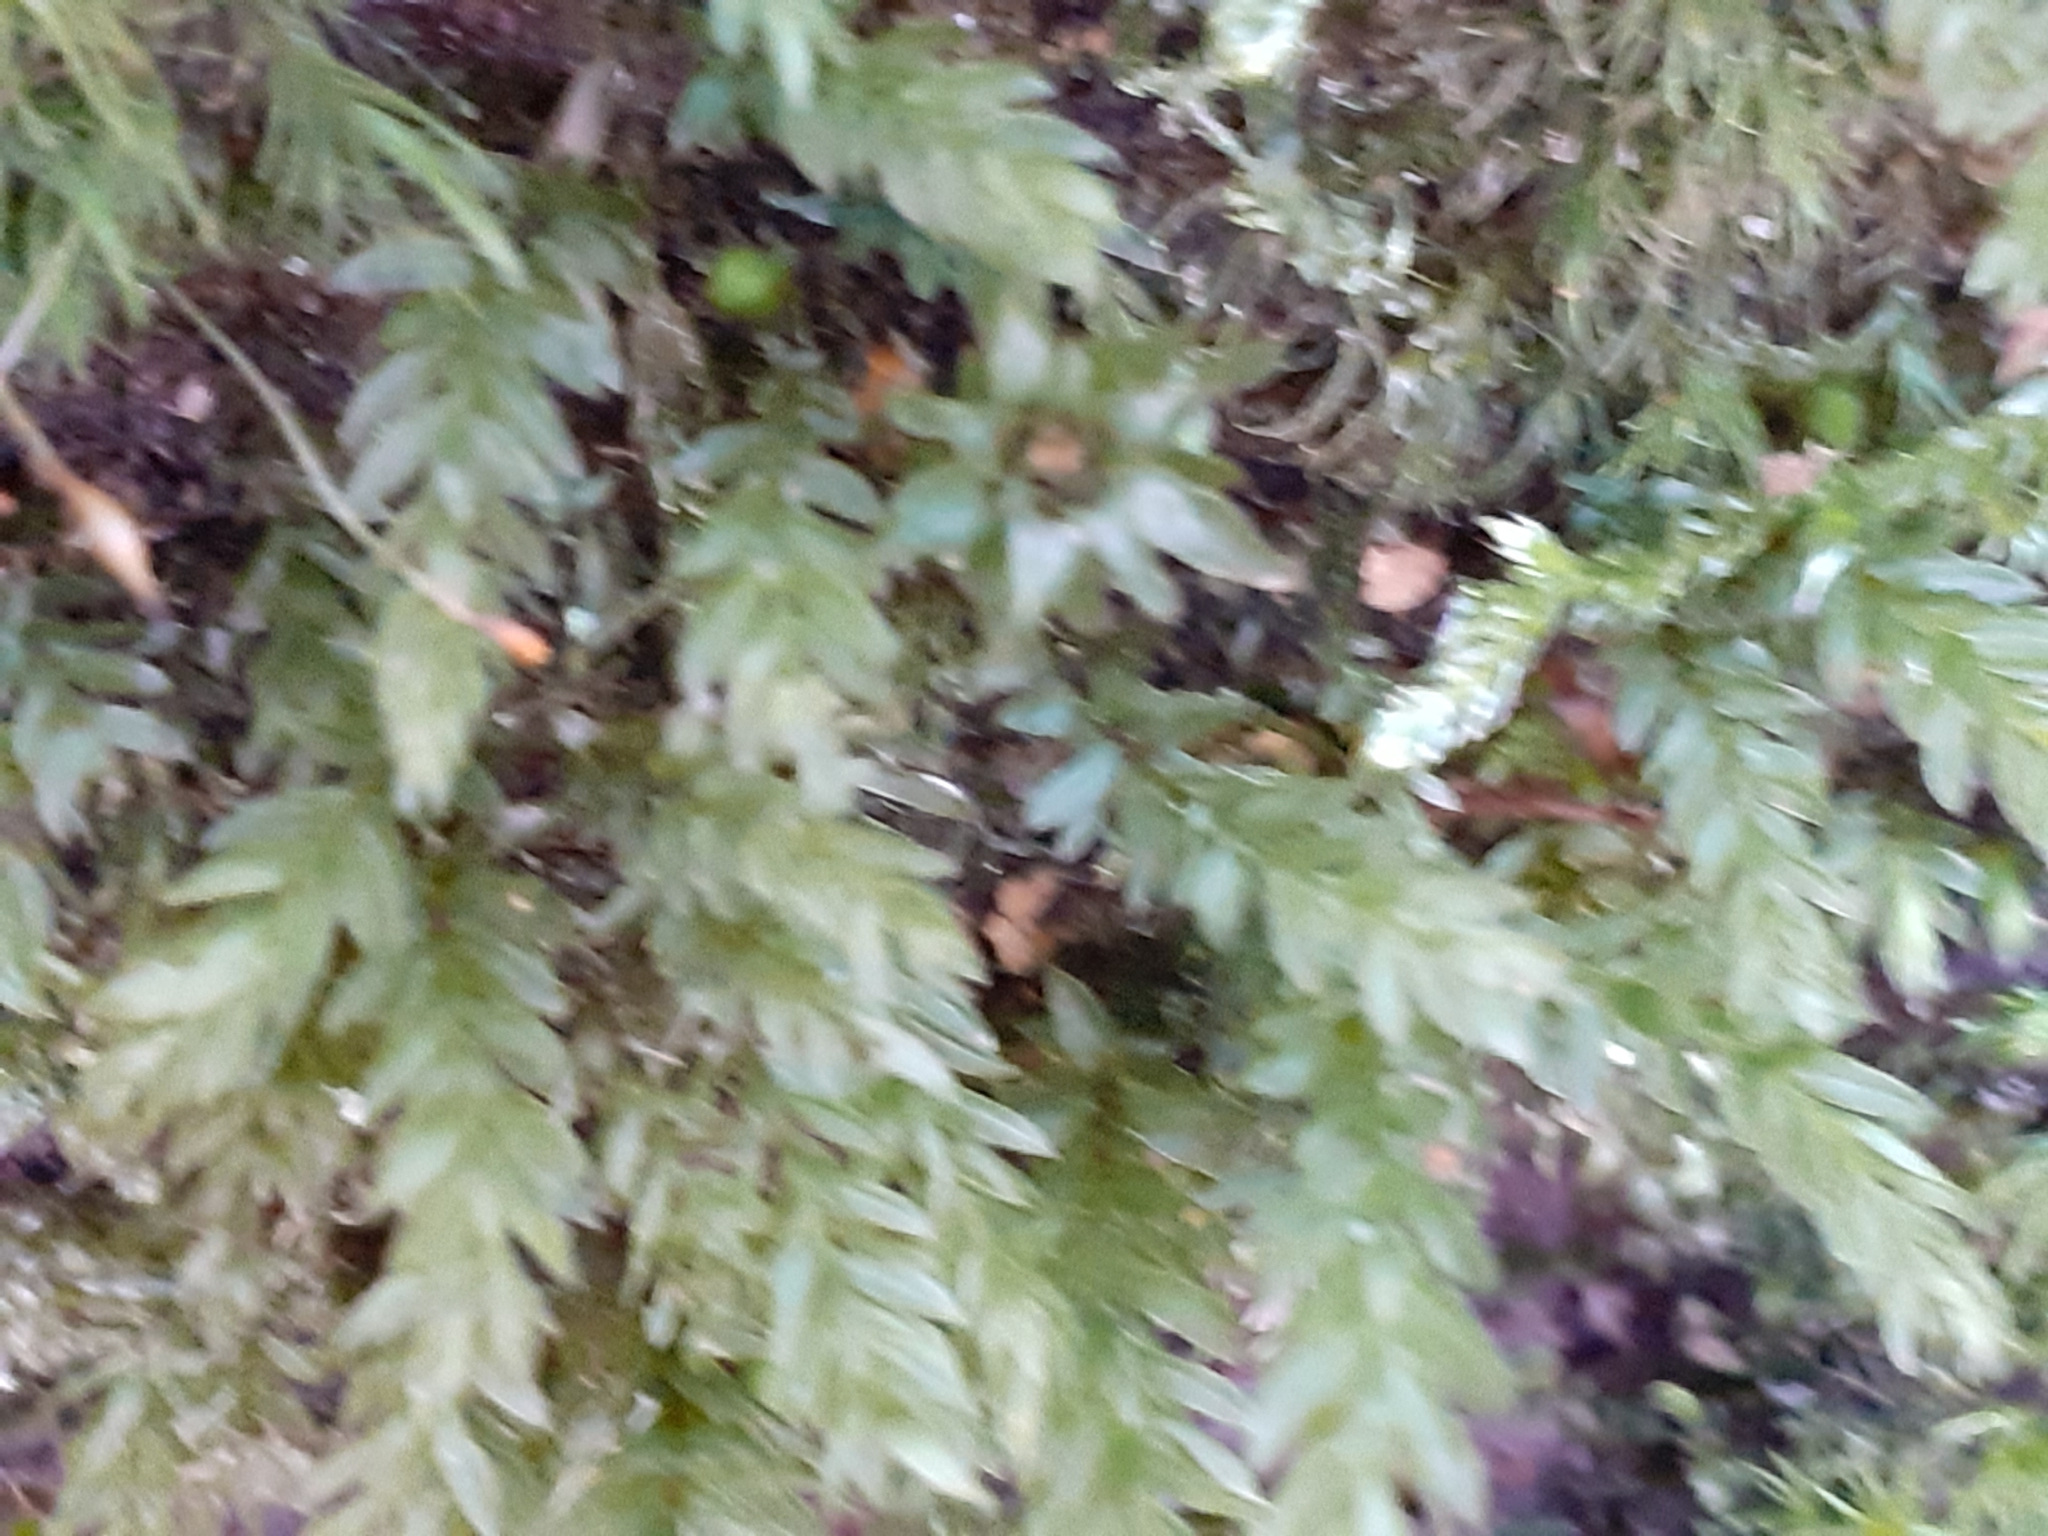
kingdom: Plantae
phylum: Bryophyta
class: Bryopsida
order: Bryales
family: Mniaceae
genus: Mnium
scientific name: Mnium hornum
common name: Swan's-neck leafy moss
